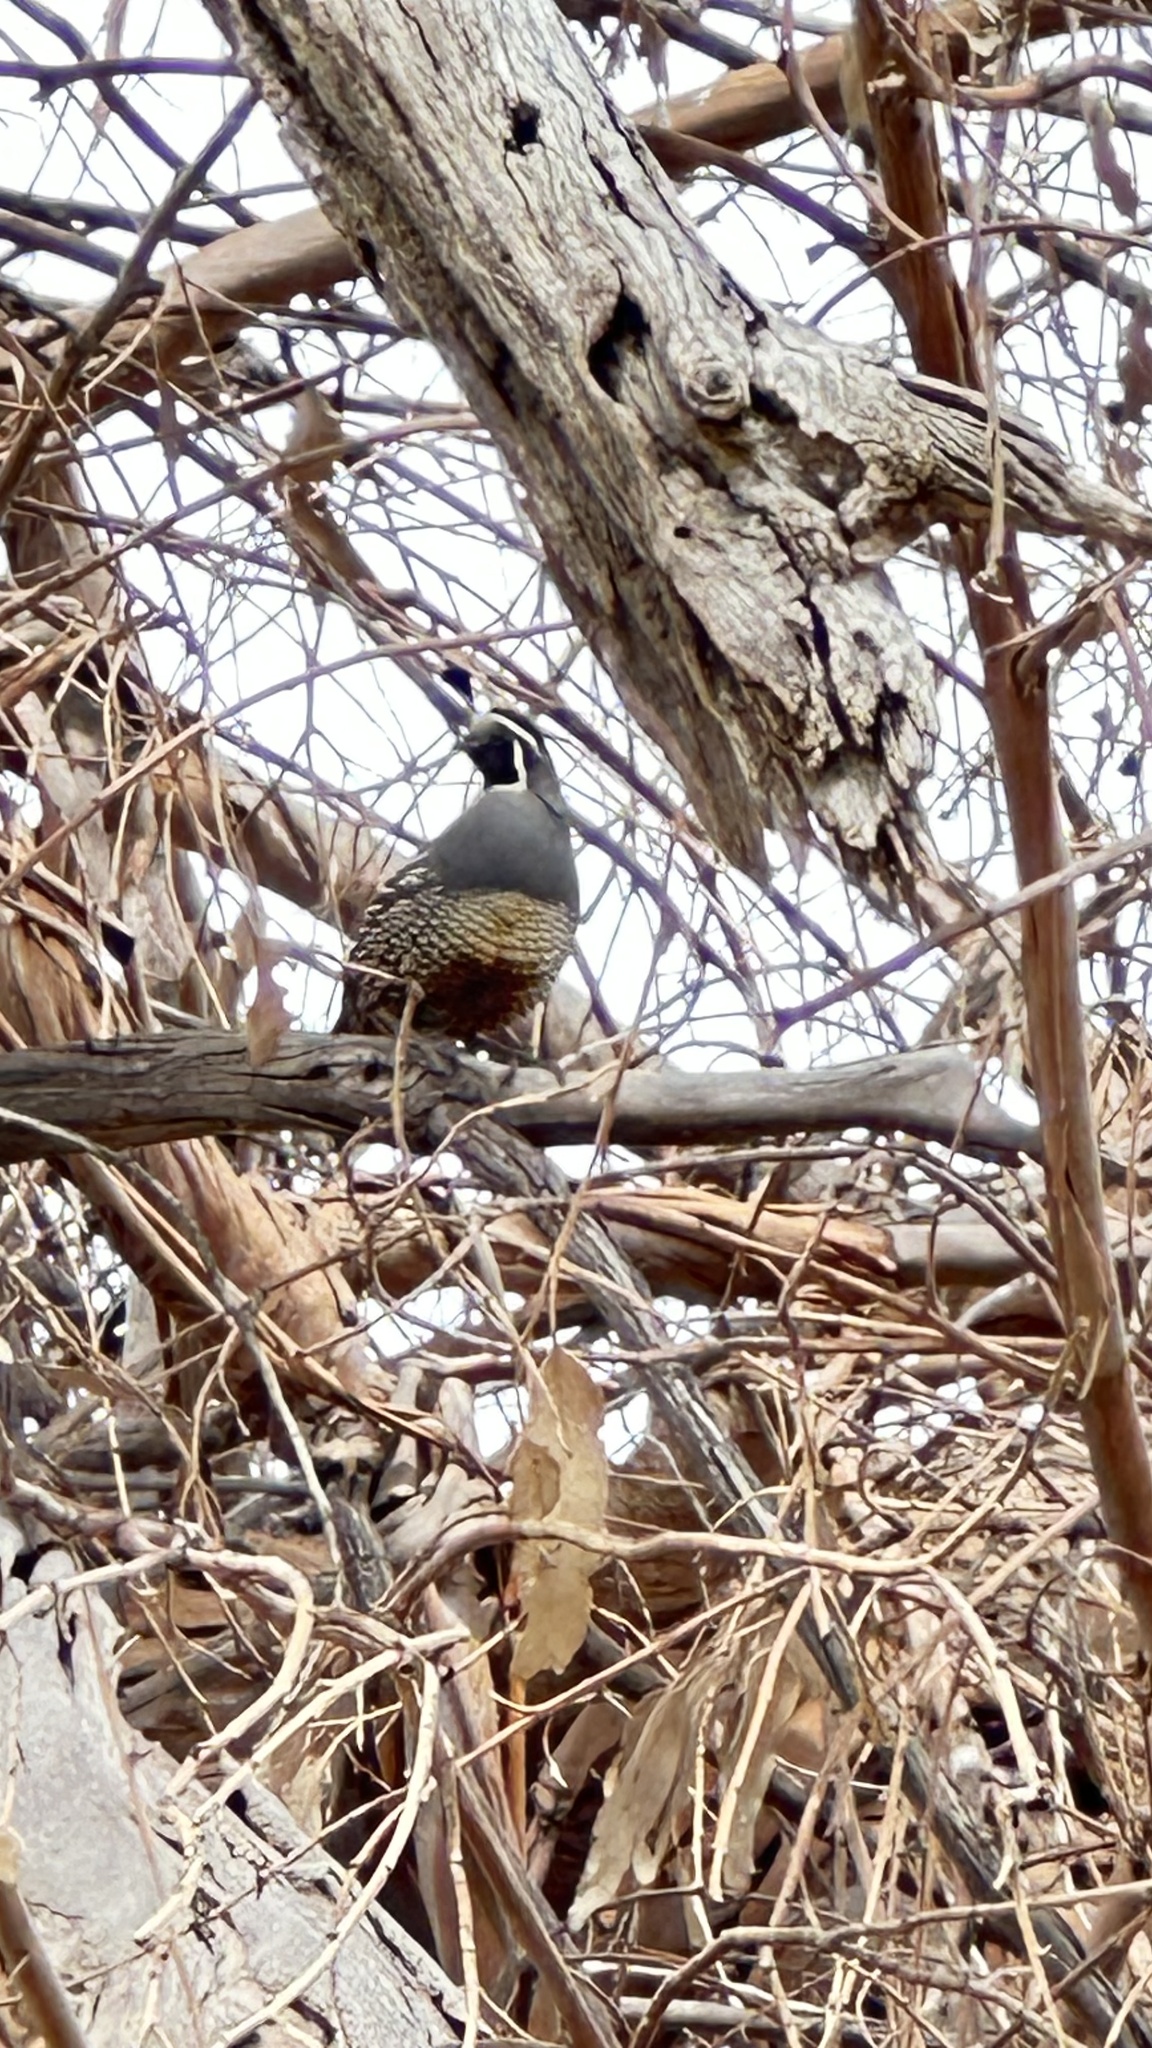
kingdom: Animalia
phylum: Chordata
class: Aves
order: Galliformes
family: Odontophoridae
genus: Callipepla
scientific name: Callipepla californica
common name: California quail
